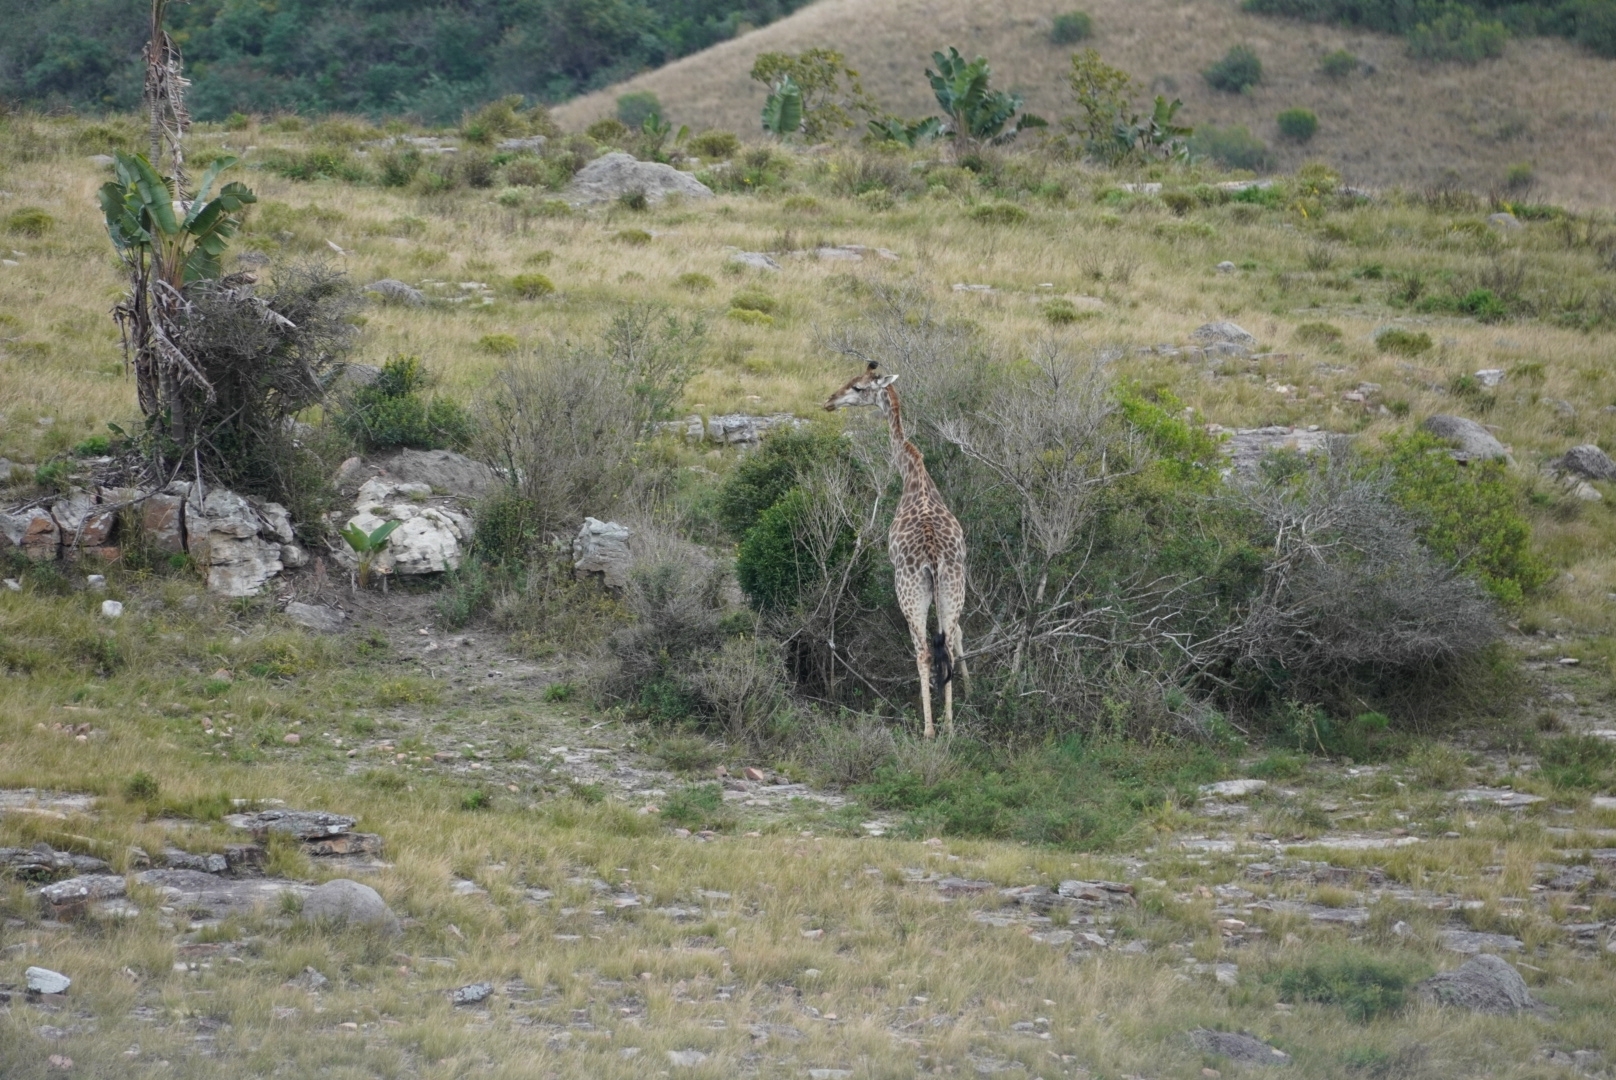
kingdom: Animalia
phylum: Chordata
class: Mammalia
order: Artiodactyla
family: Giraffidae
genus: Giraffa
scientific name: Giraffa giraffa
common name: Southern giraffe
